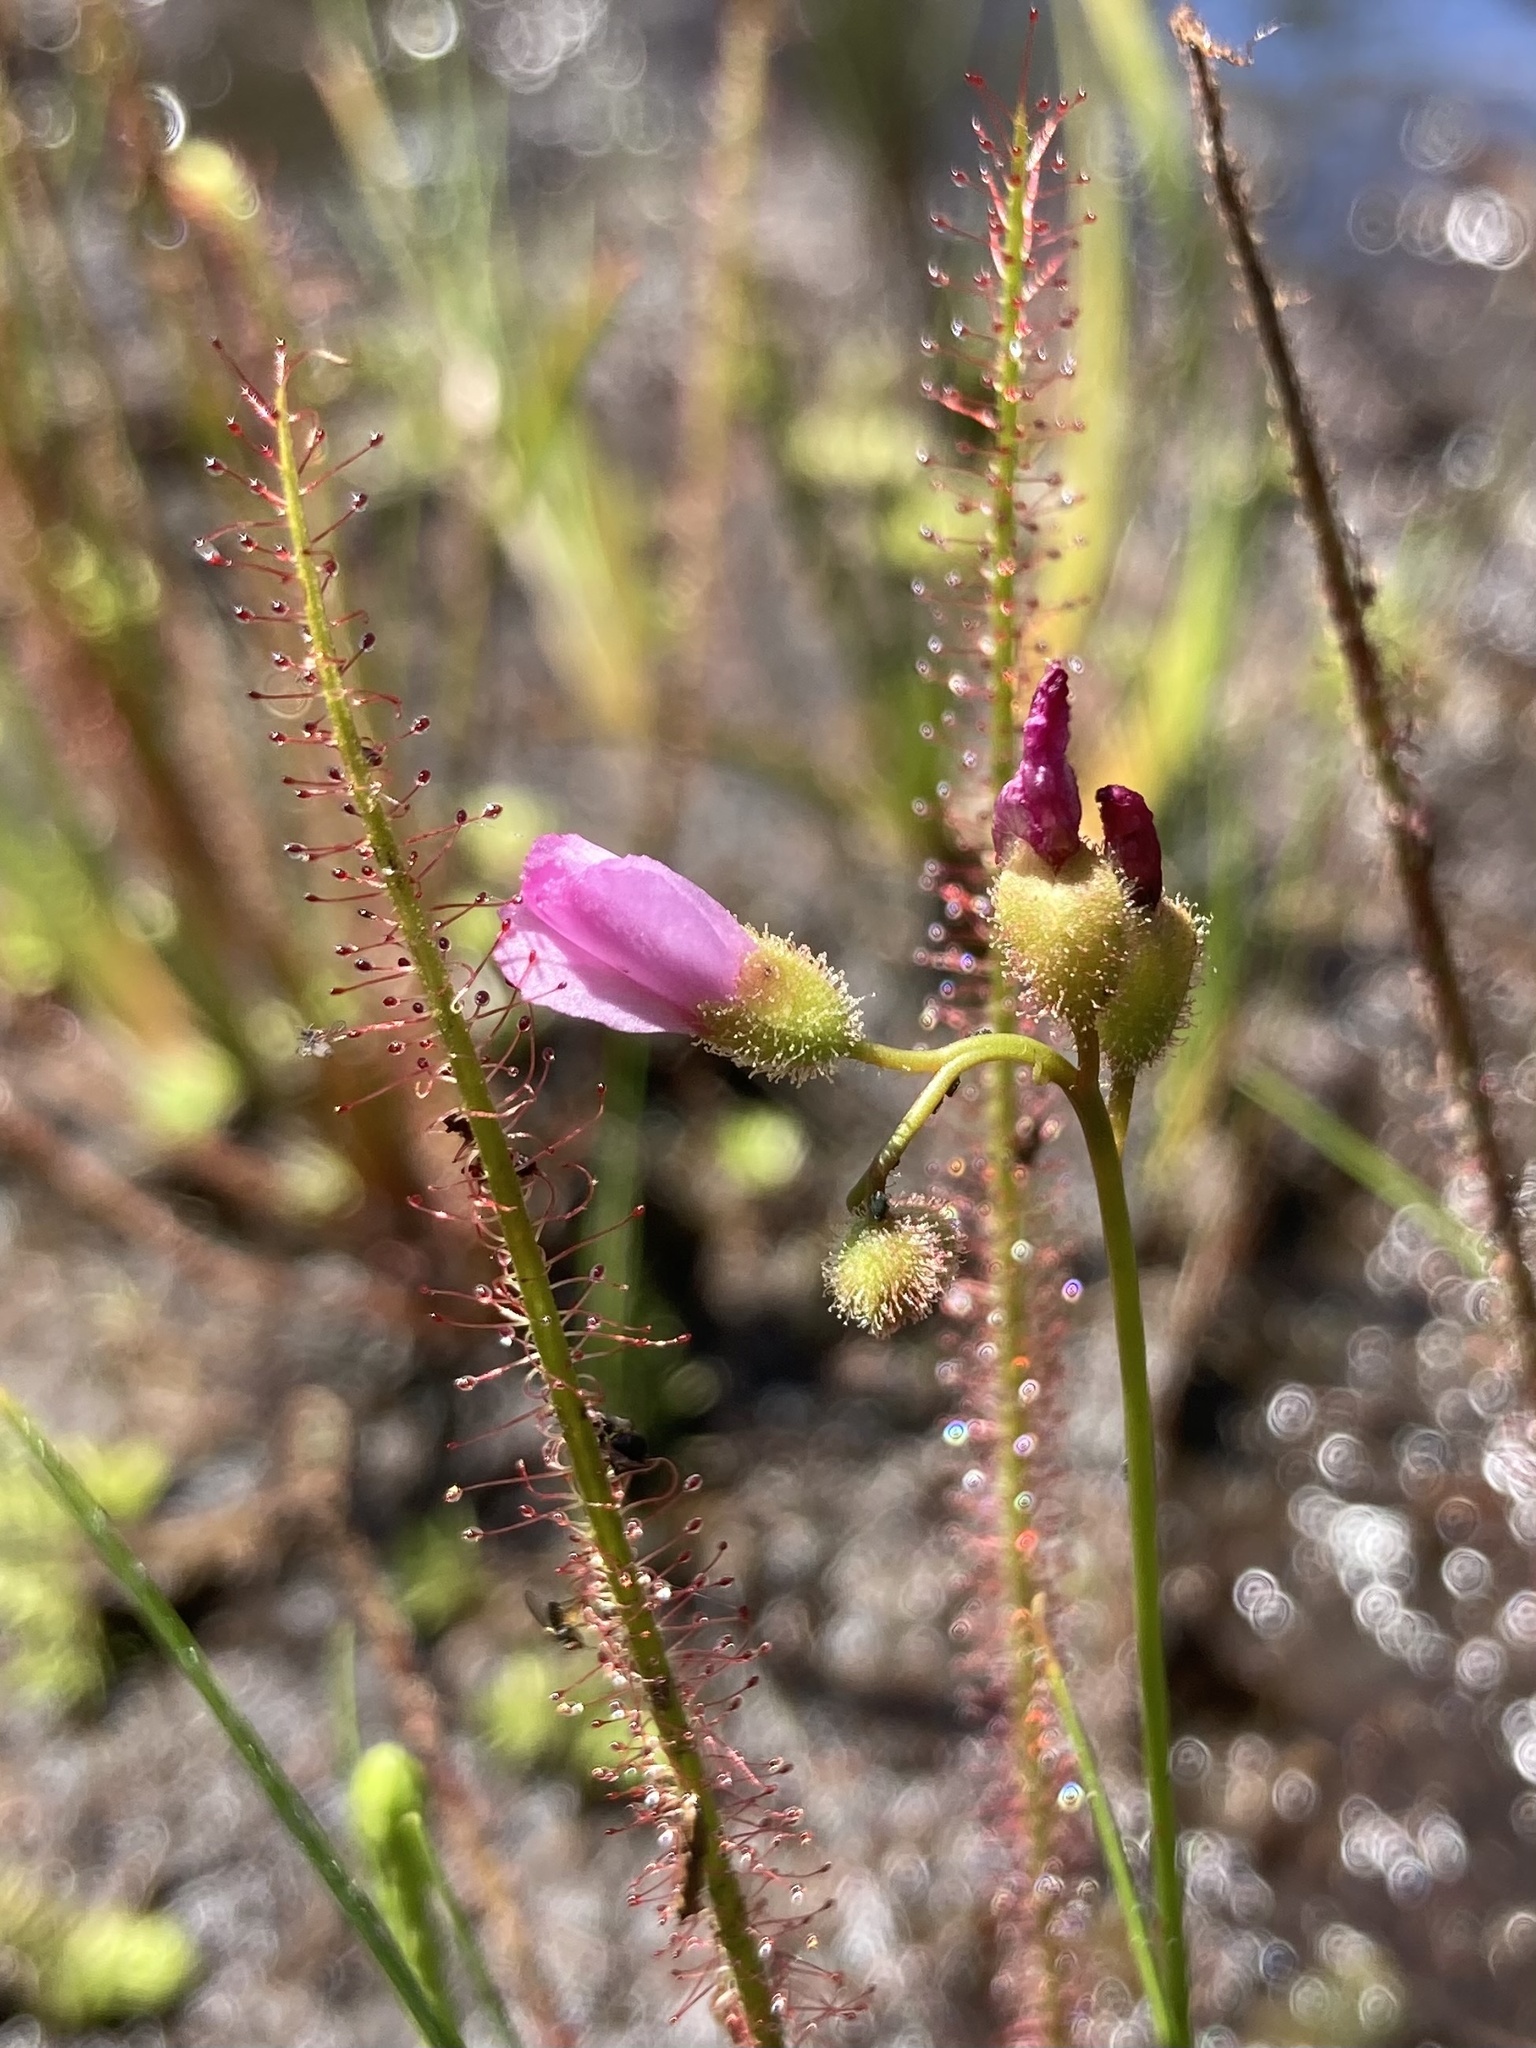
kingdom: Plantae
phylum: Tracheophyta
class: Magnoliopsida
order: Caryophyllales
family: Droseraceae
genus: Drosera
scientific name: Drosera filiformis
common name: Dew-thread
